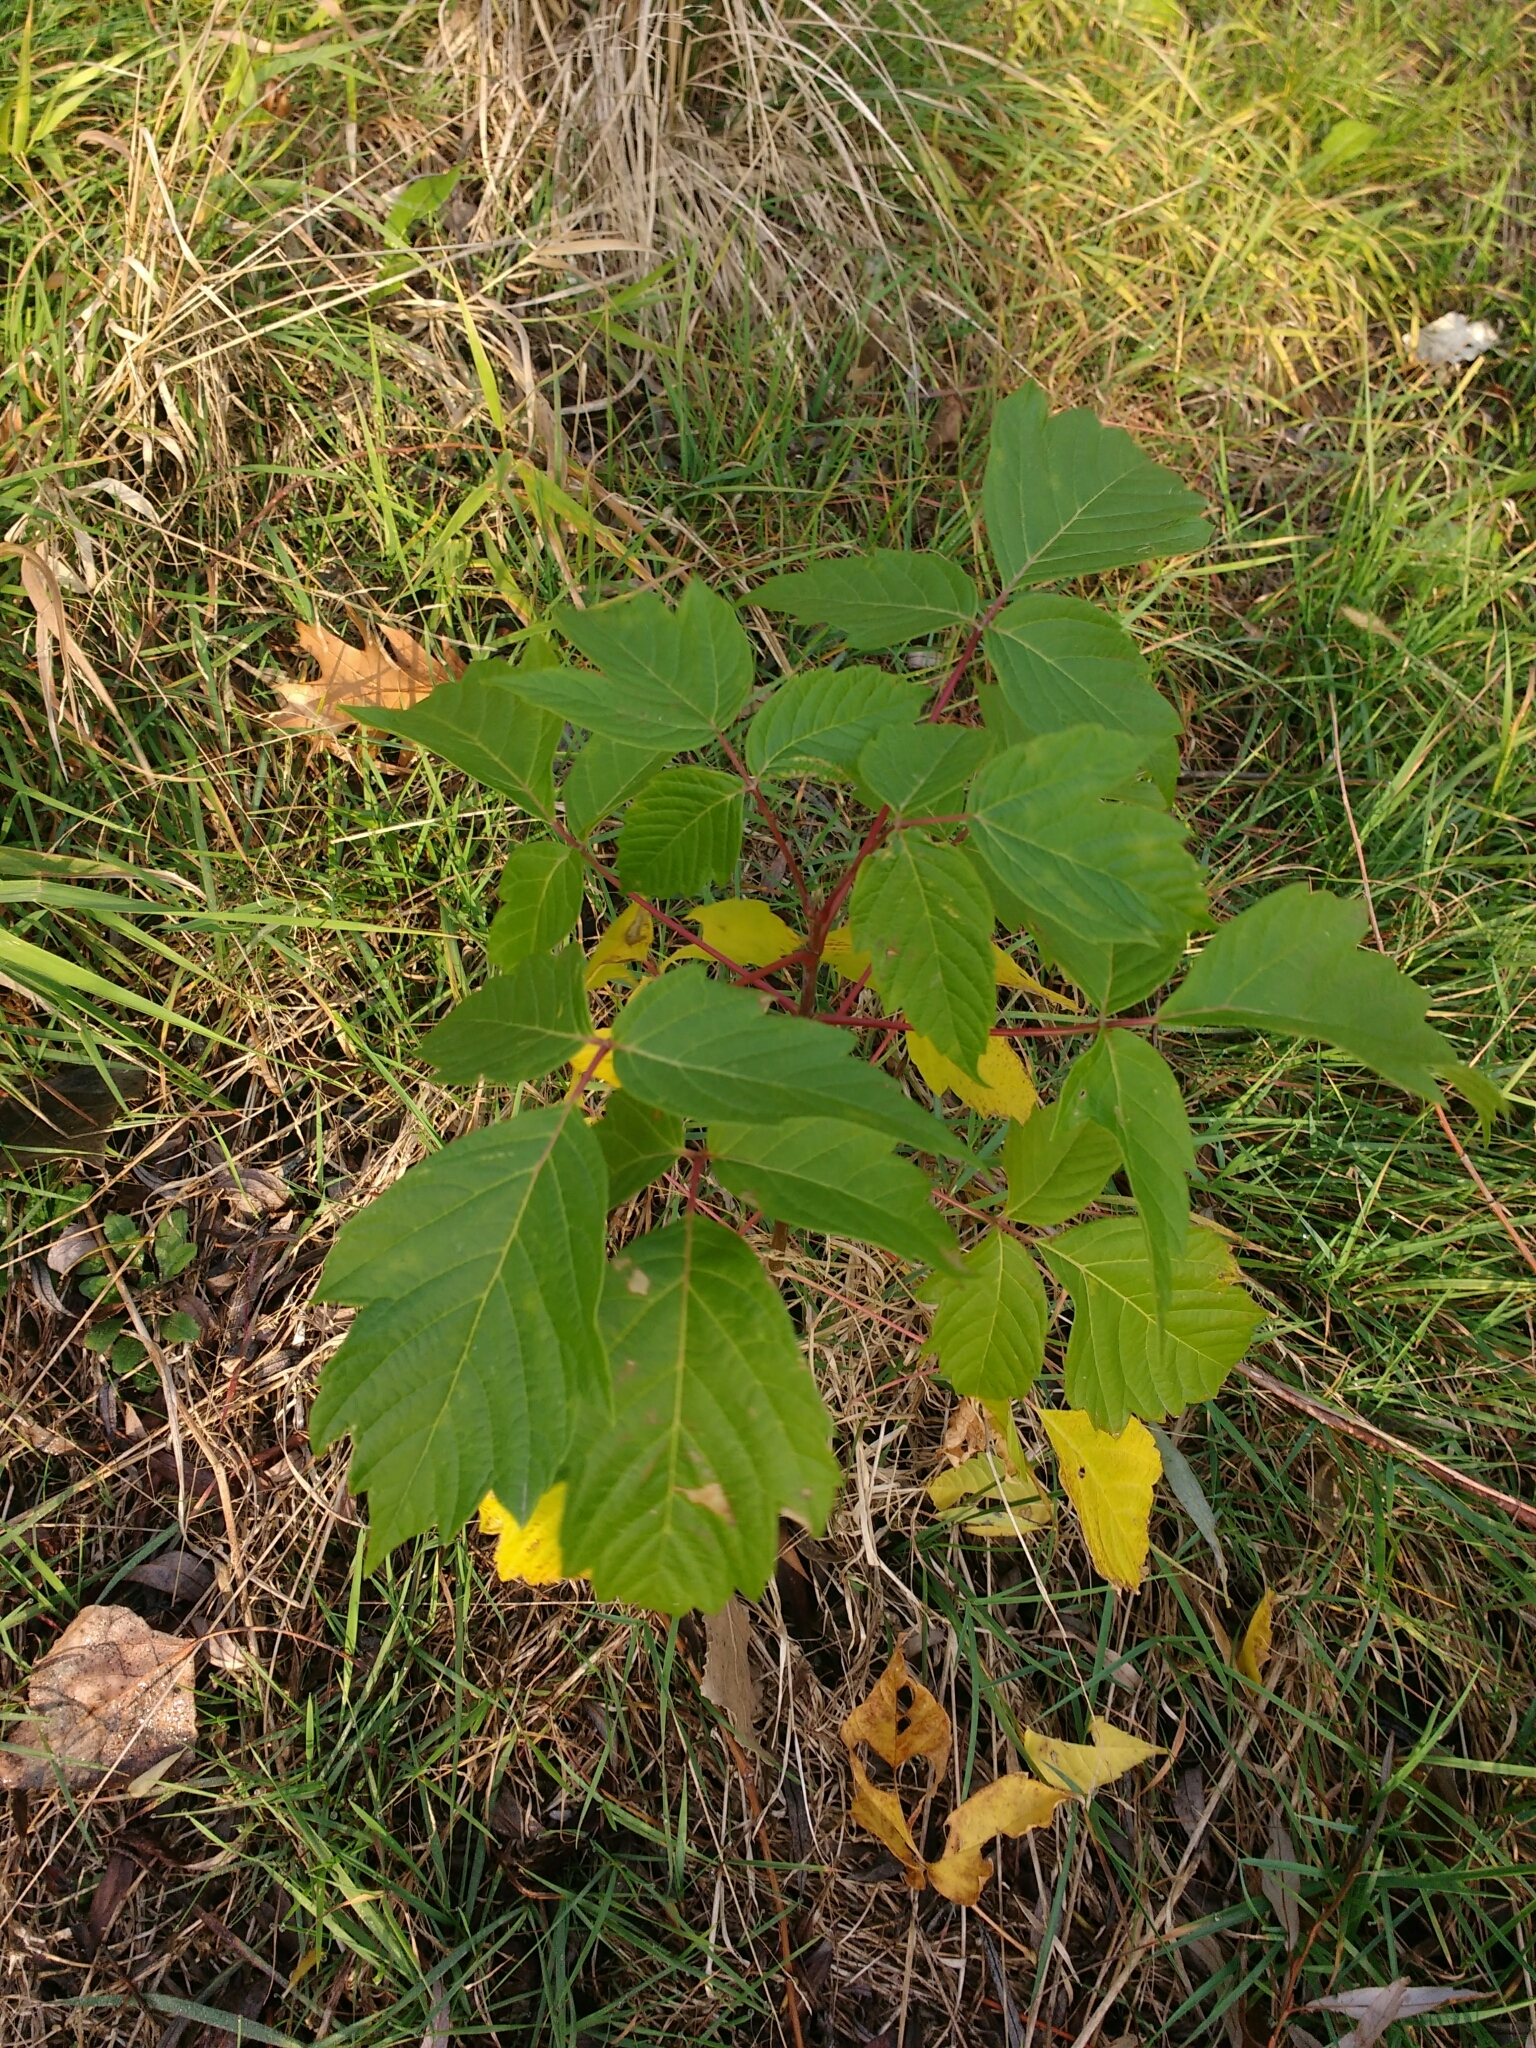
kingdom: Plantae
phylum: Tracheophyta
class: Magnoliopsida
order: Sapindales
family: Sapindaceae
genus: Acer
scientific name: Acer negundo
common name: Ashleaf maple
